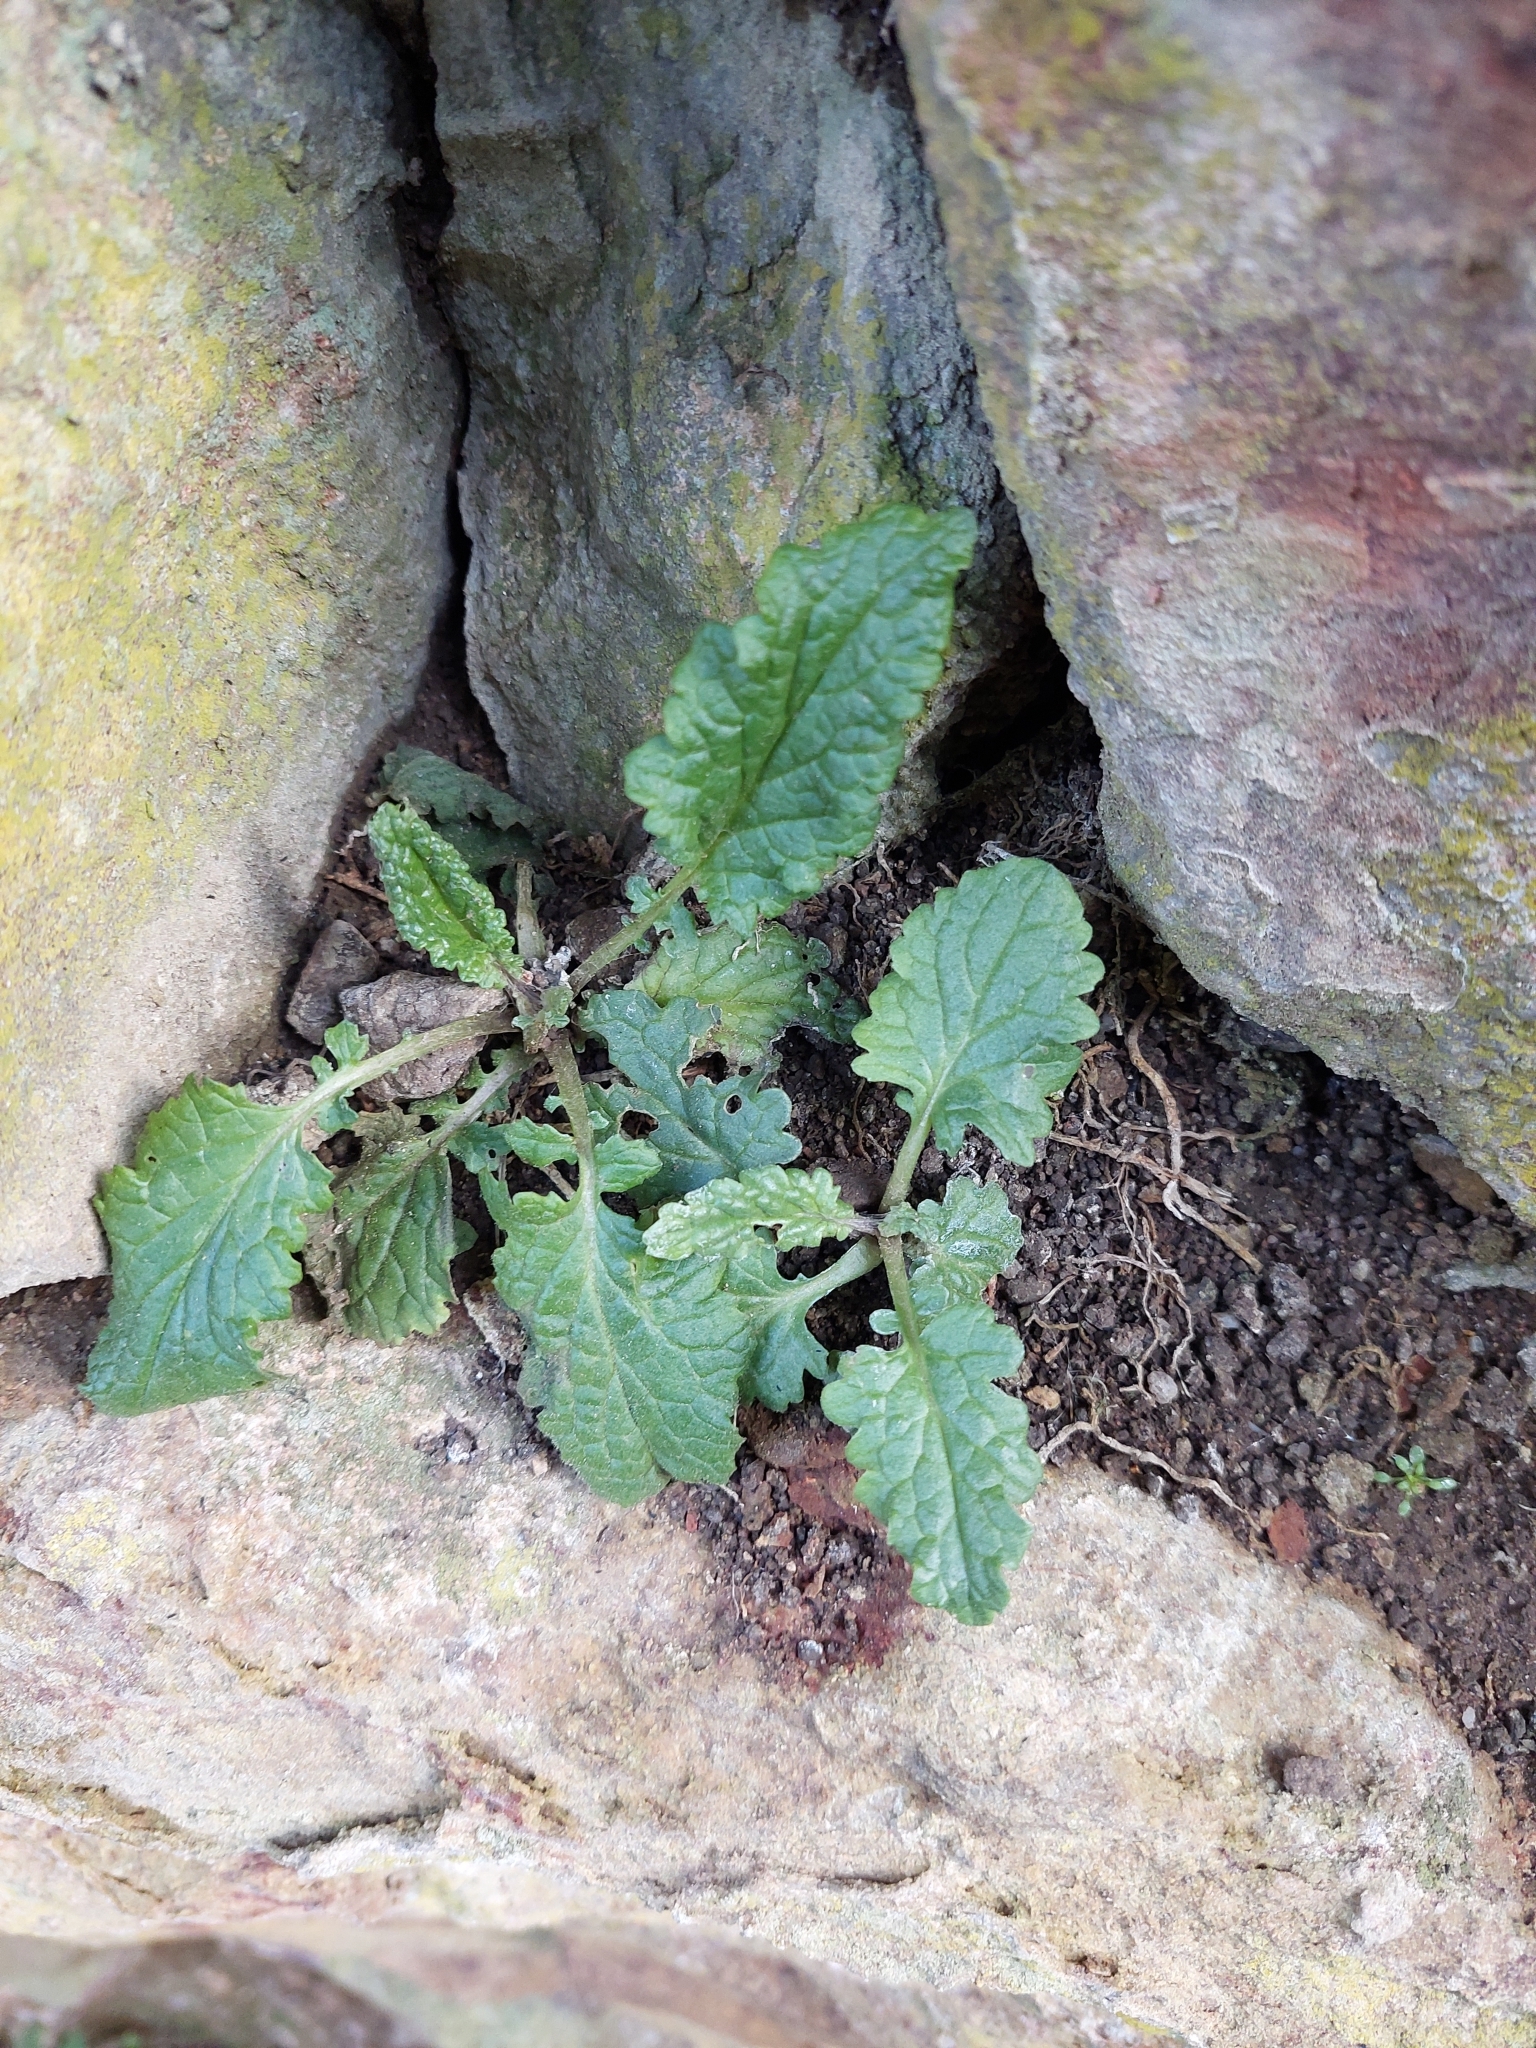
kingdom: Plantae
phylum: Tracheophyta
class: Magnoliopsida
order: Asterales
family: Asteraceae
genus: Jacobaea
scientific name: Jacobaea vulgaris
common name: Stinking willie
